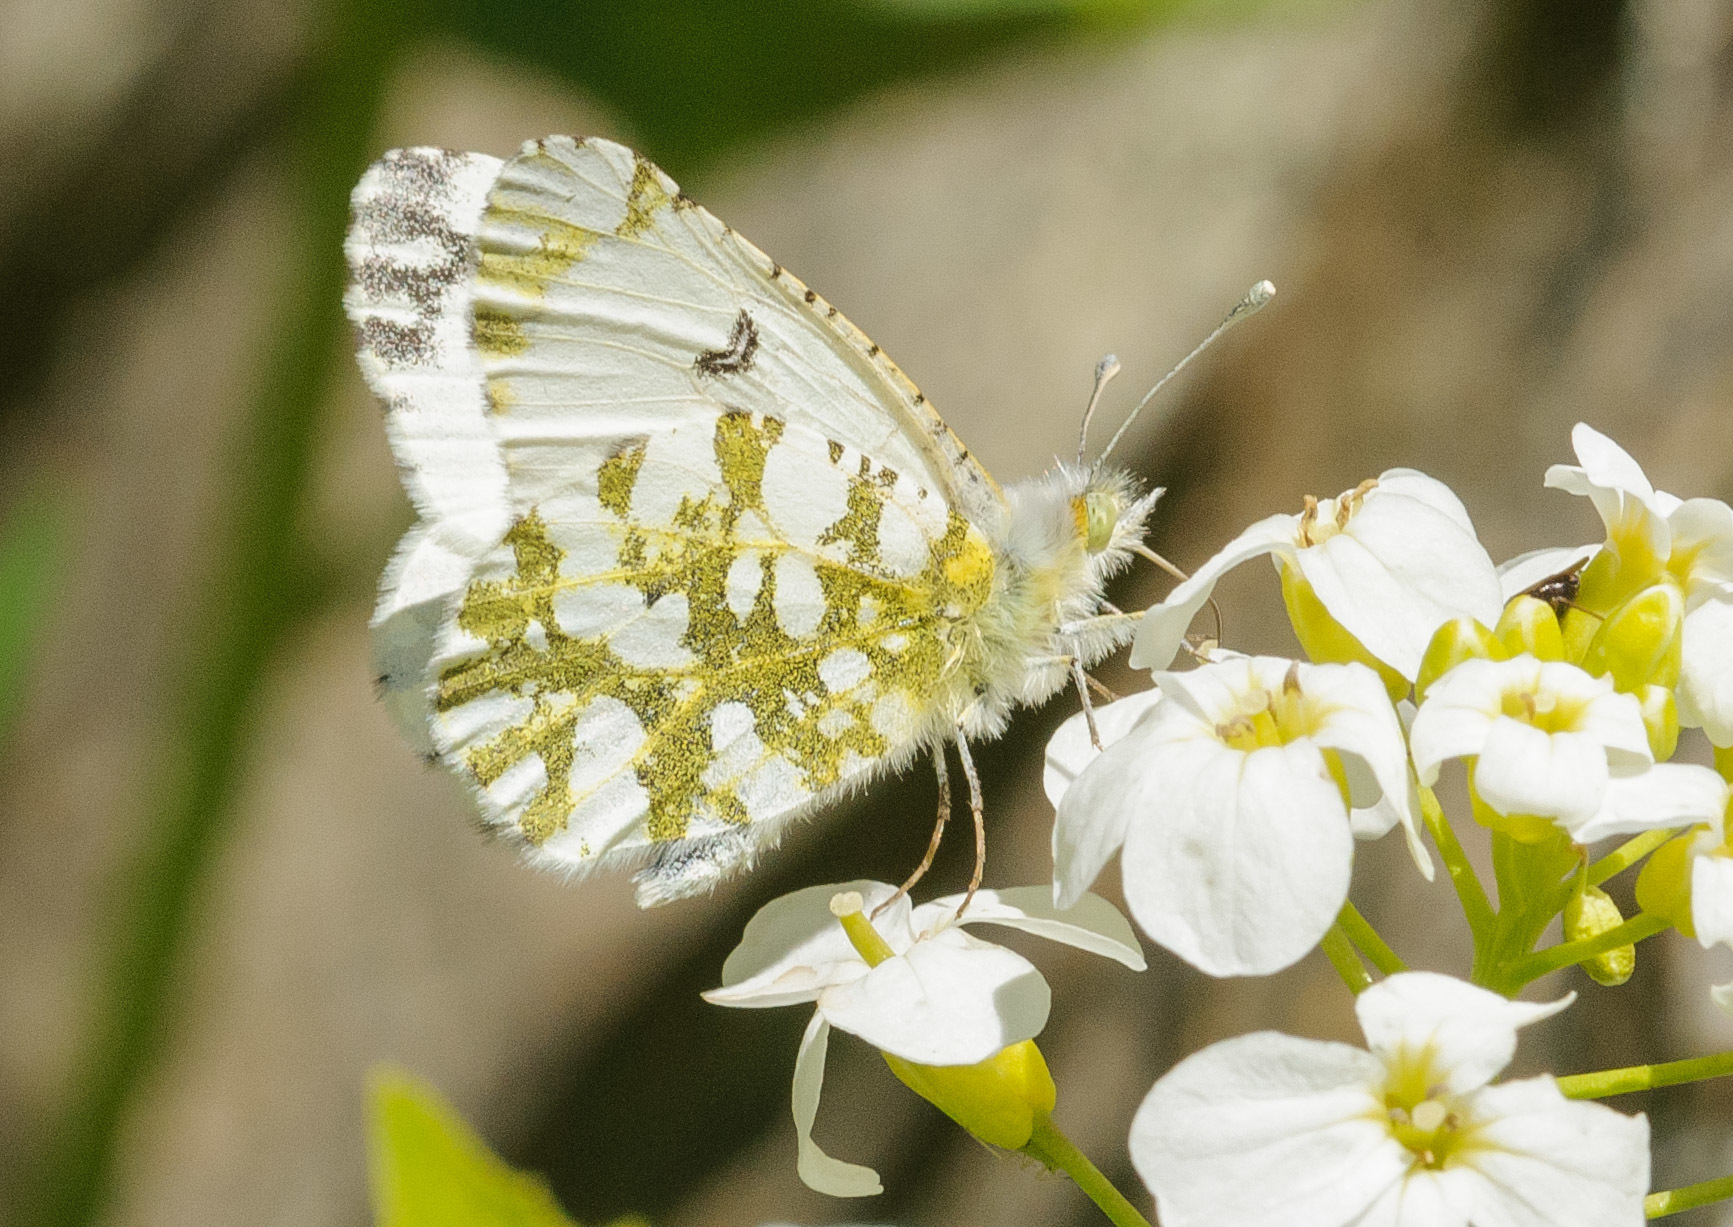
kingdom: Animalia
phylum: Arthropoda
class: Insecta
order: Lepidoptera
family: Pieridae
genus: Euchloe
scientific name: Euchloe ausonides
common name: Creamy marblewing
